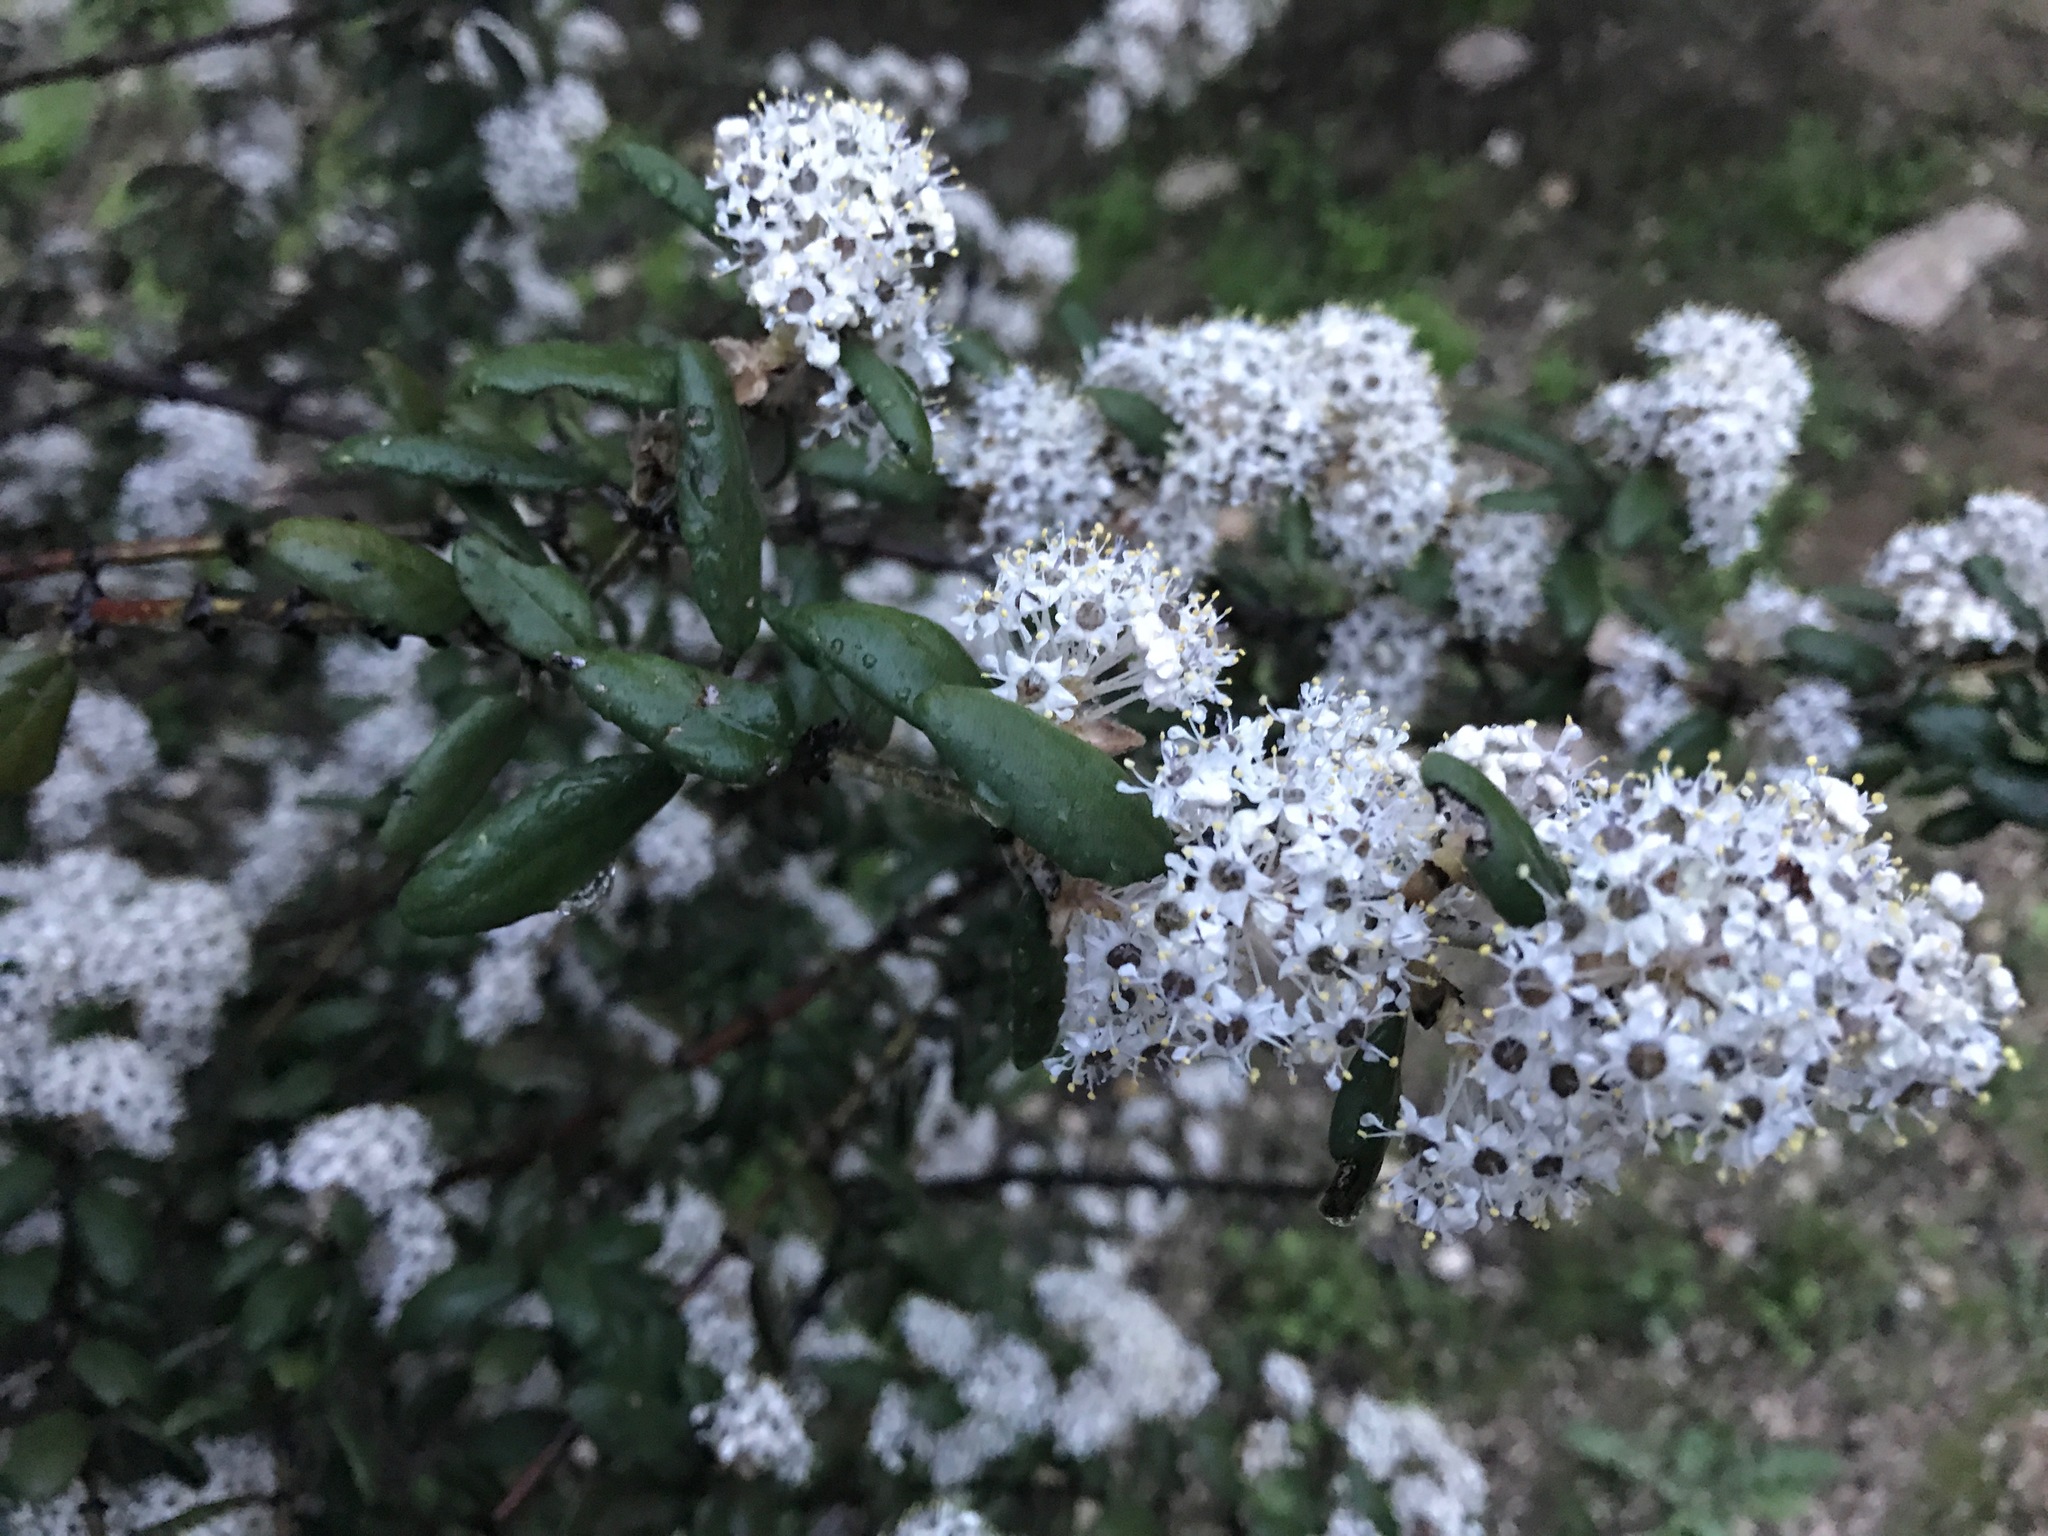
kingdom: Plantae
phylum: Tracheophyta
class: Magnoliopsida
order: Rosales
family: Rhamnaceae
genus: Ceanothus
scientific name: Ceanothus crassifolius
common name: Hoaryleaf ceanothus
